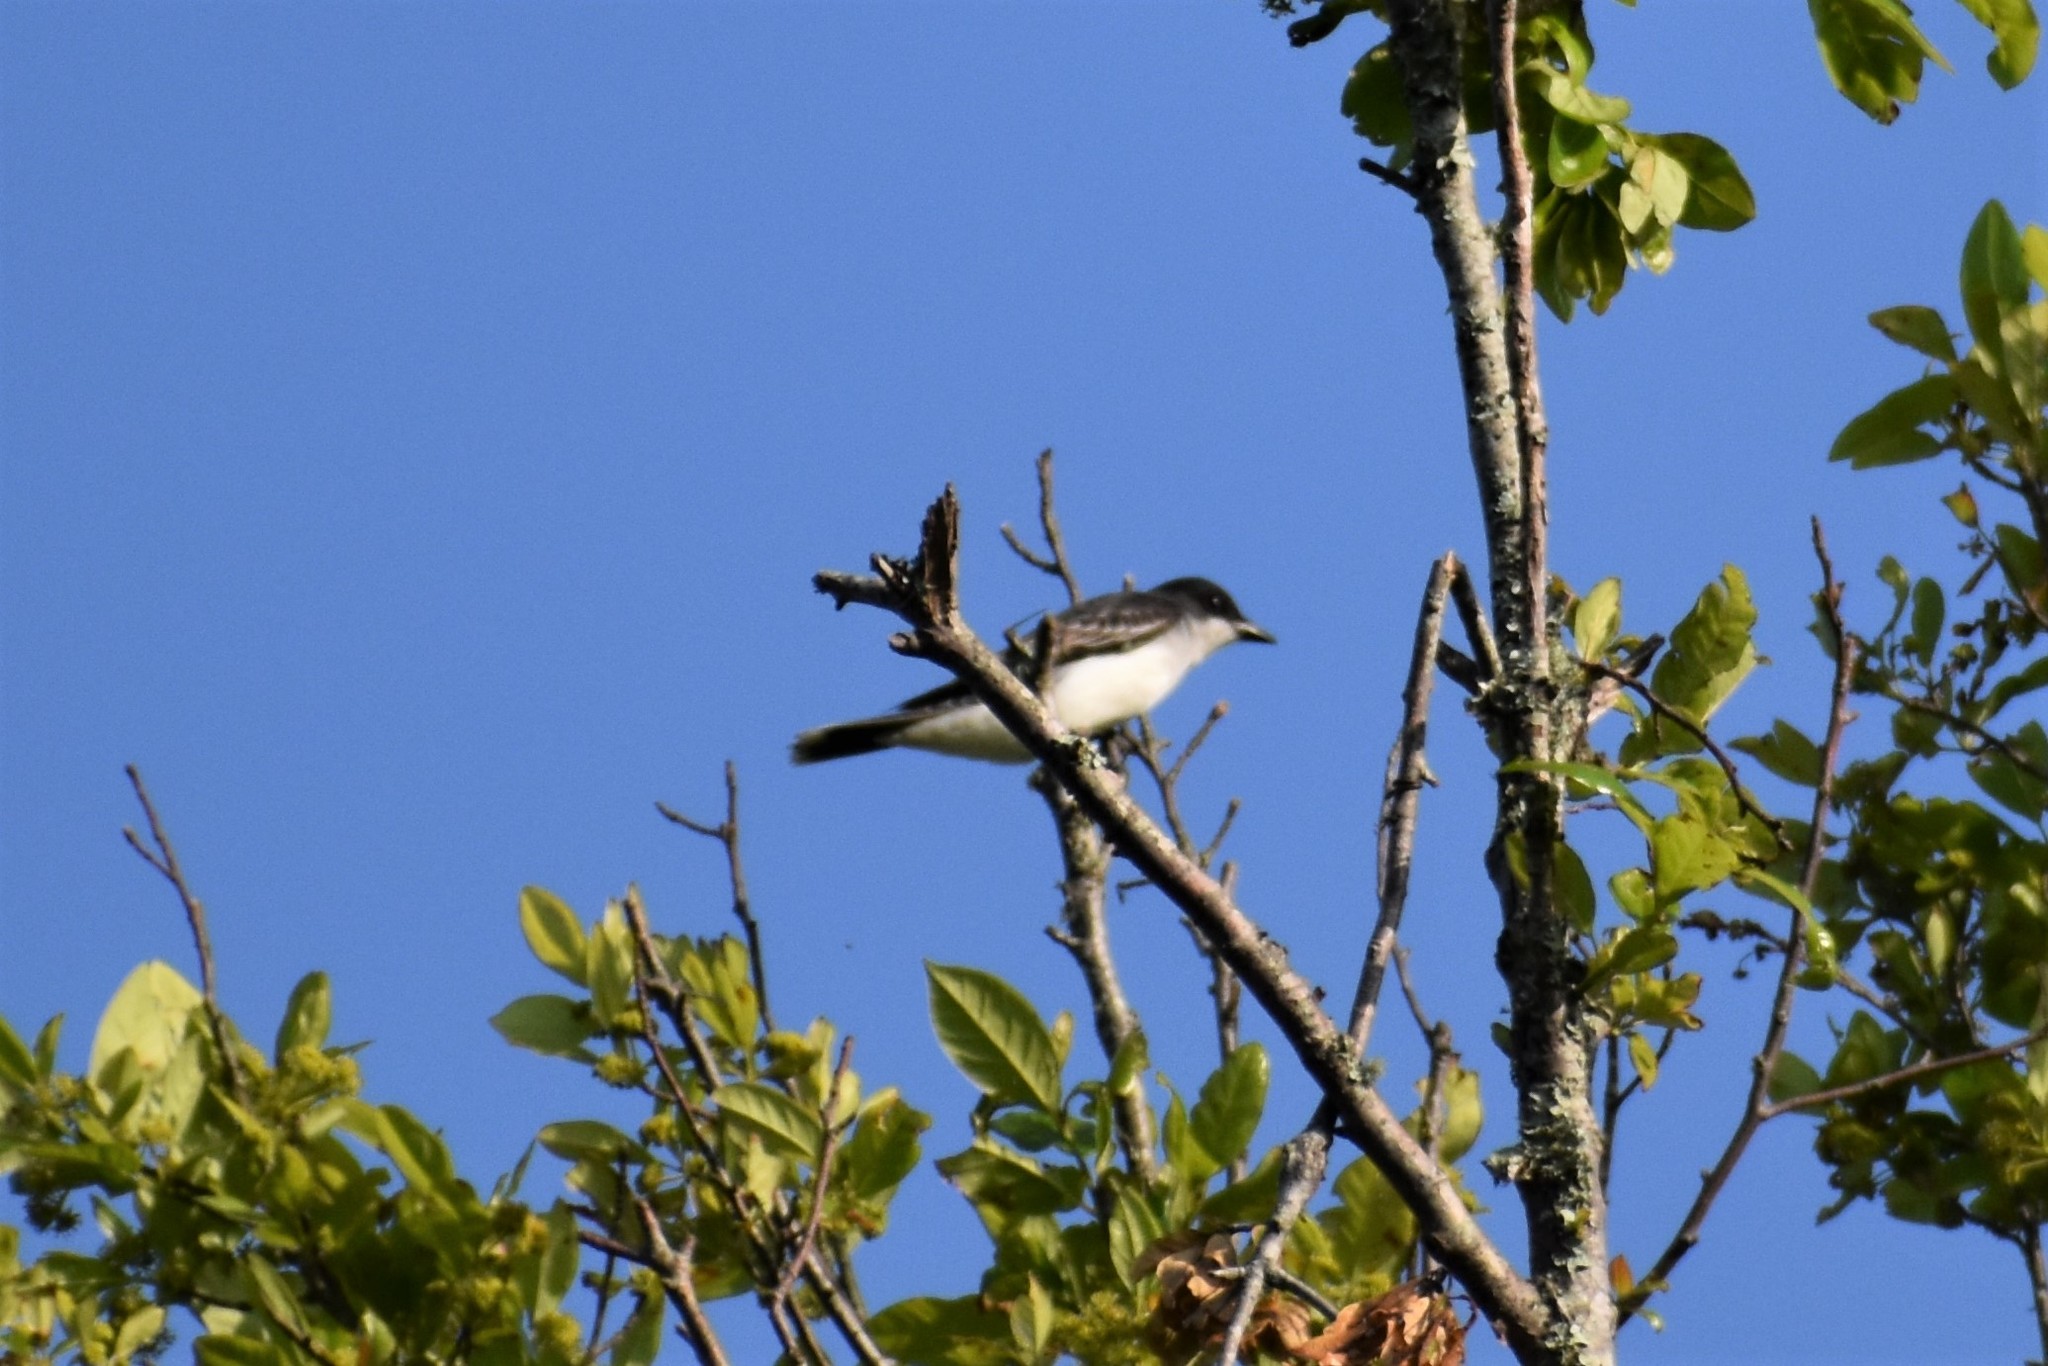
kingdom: Animalia
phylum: Chordata
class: Aves
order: Passeriformes
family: Tyrannidae
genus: Tyrannus
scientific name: Tyrannus tyrannus
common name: Eastern kingbird
